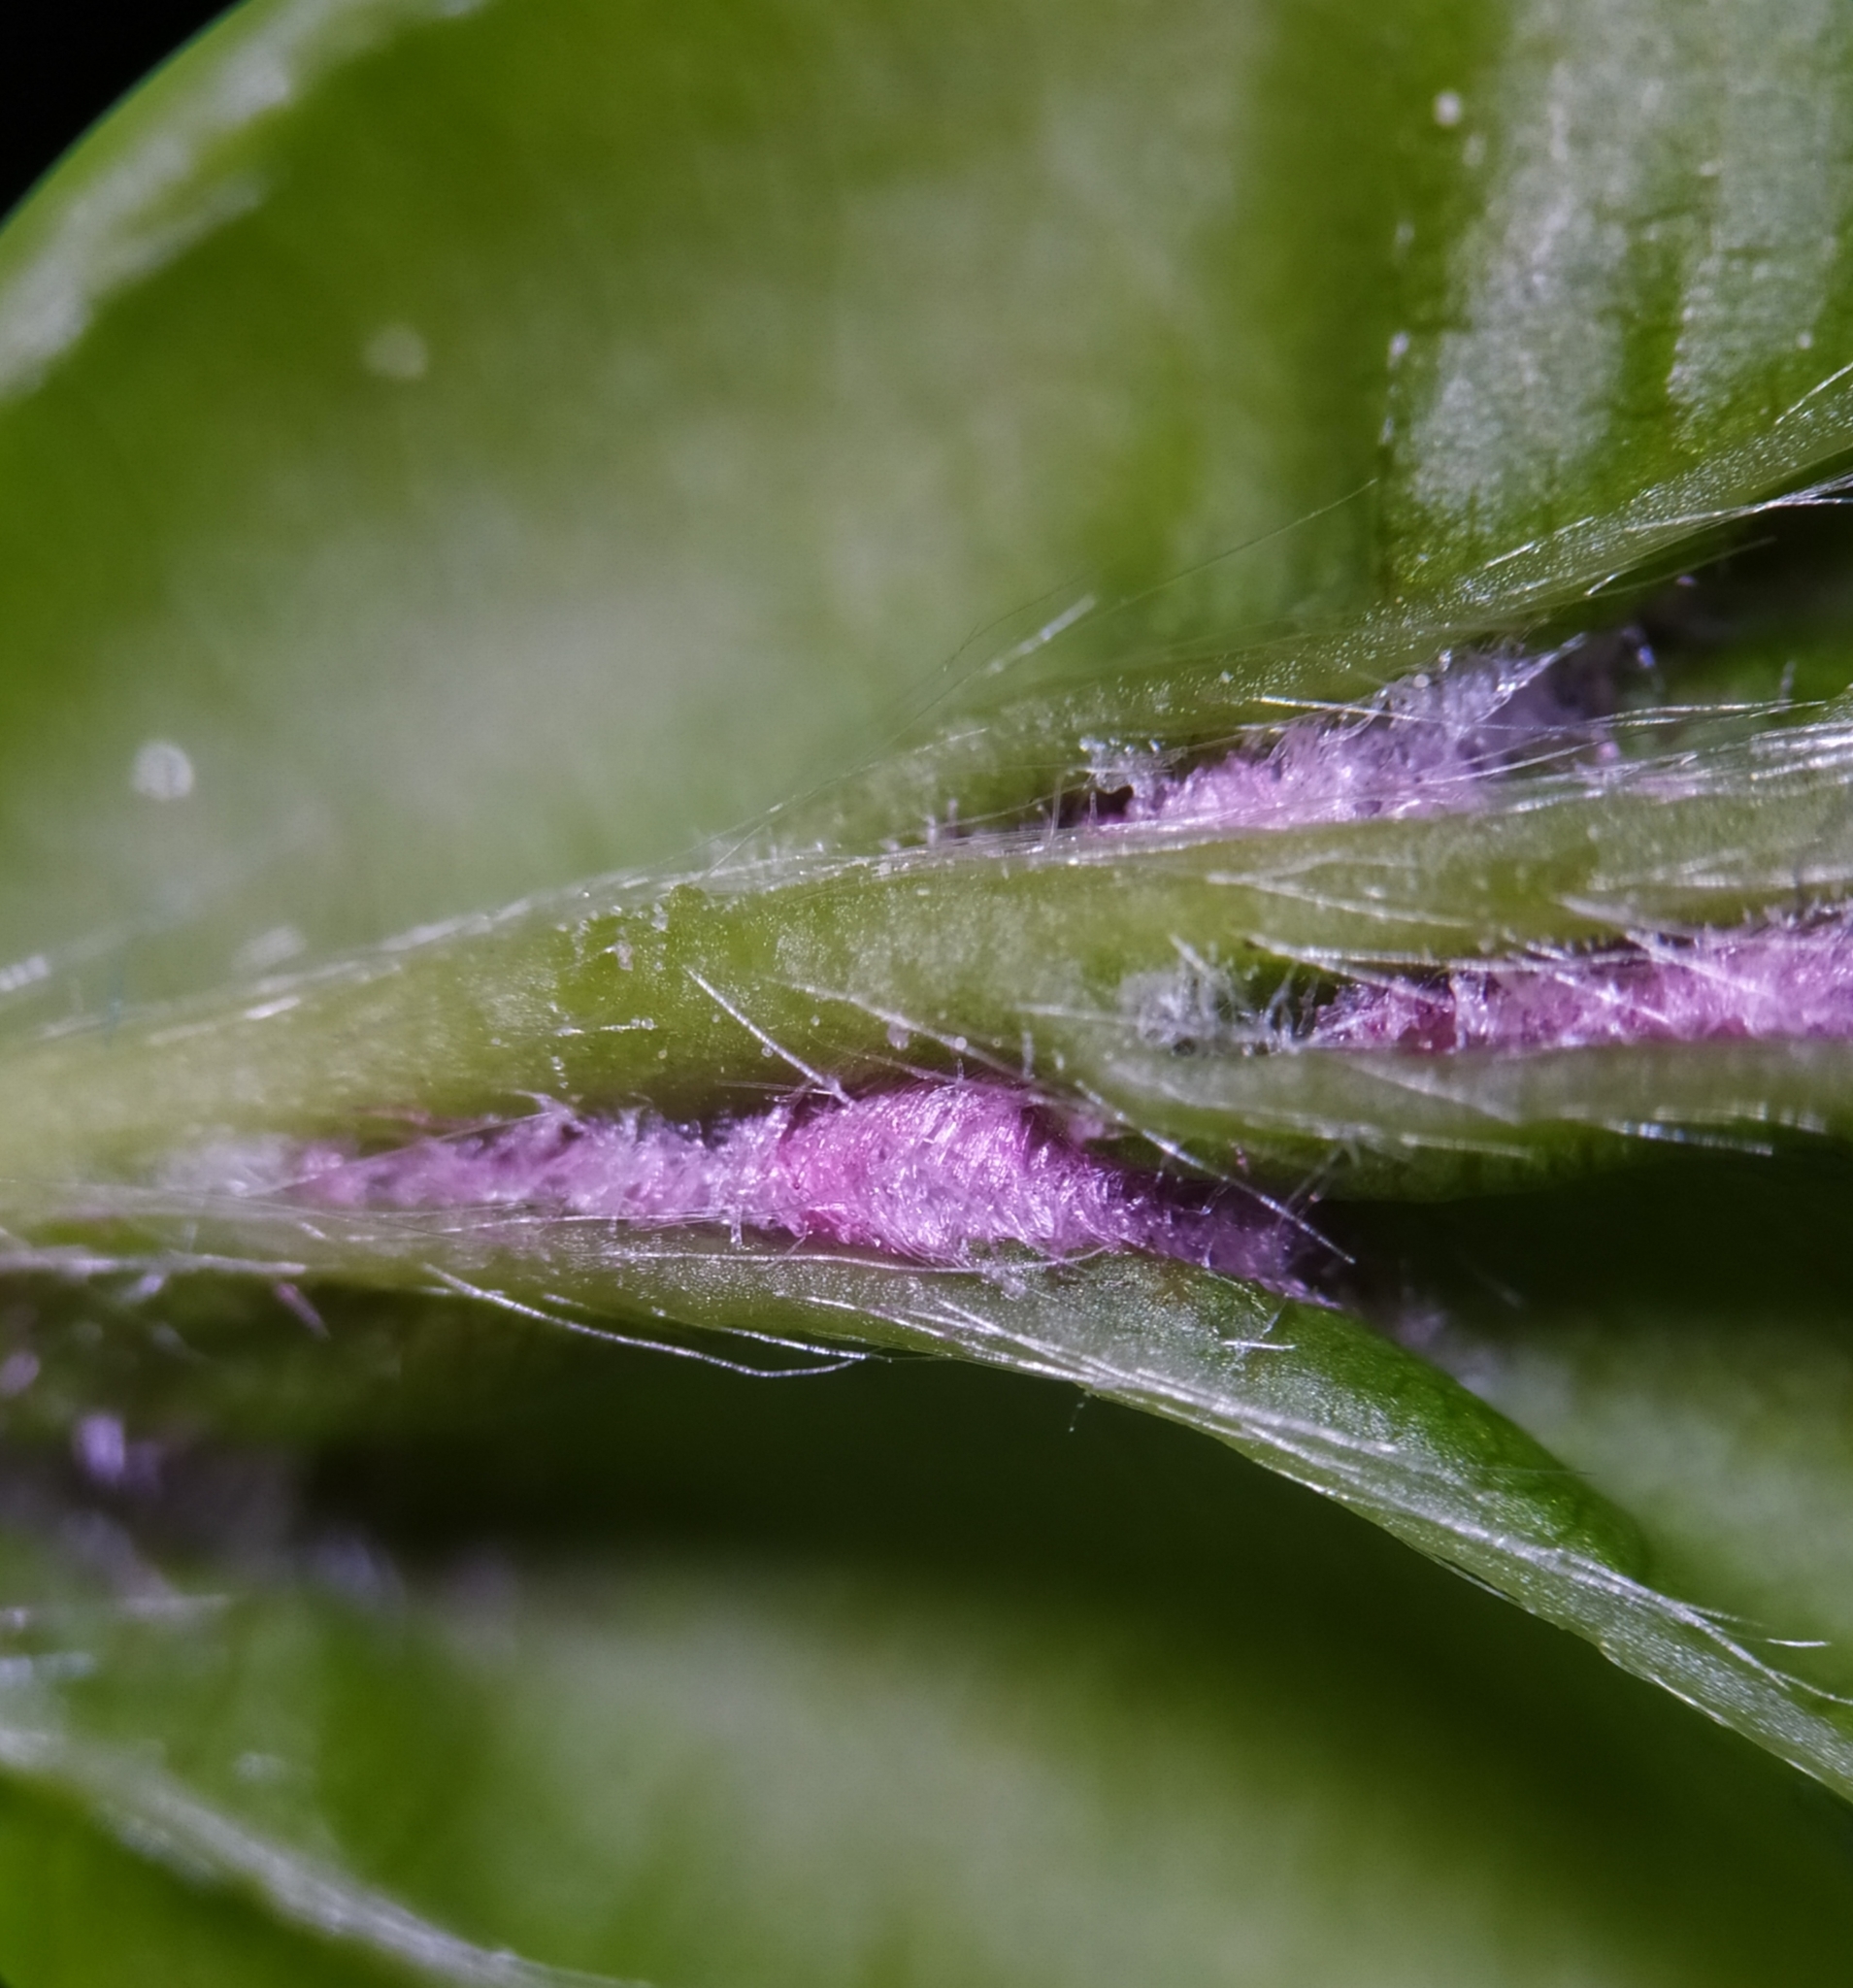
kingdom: Animalia
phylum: Arthropoda
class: Arachnida
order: Trombidiformes
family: Eriophyidae
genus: Aceria
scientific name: Aceria tenellus
